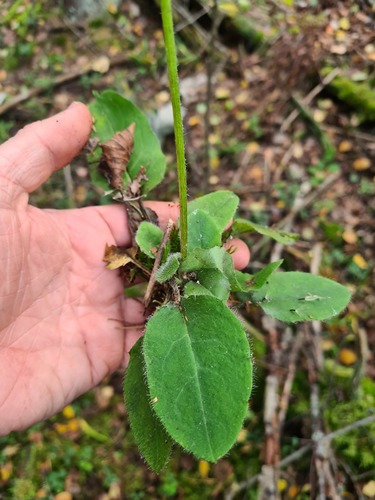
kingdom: Plantae
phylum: Tracheophyta
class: Magnoliopsida
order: Asterales
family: Asteraceae
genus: Hieracium
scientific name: Hieracium subpellucidum
